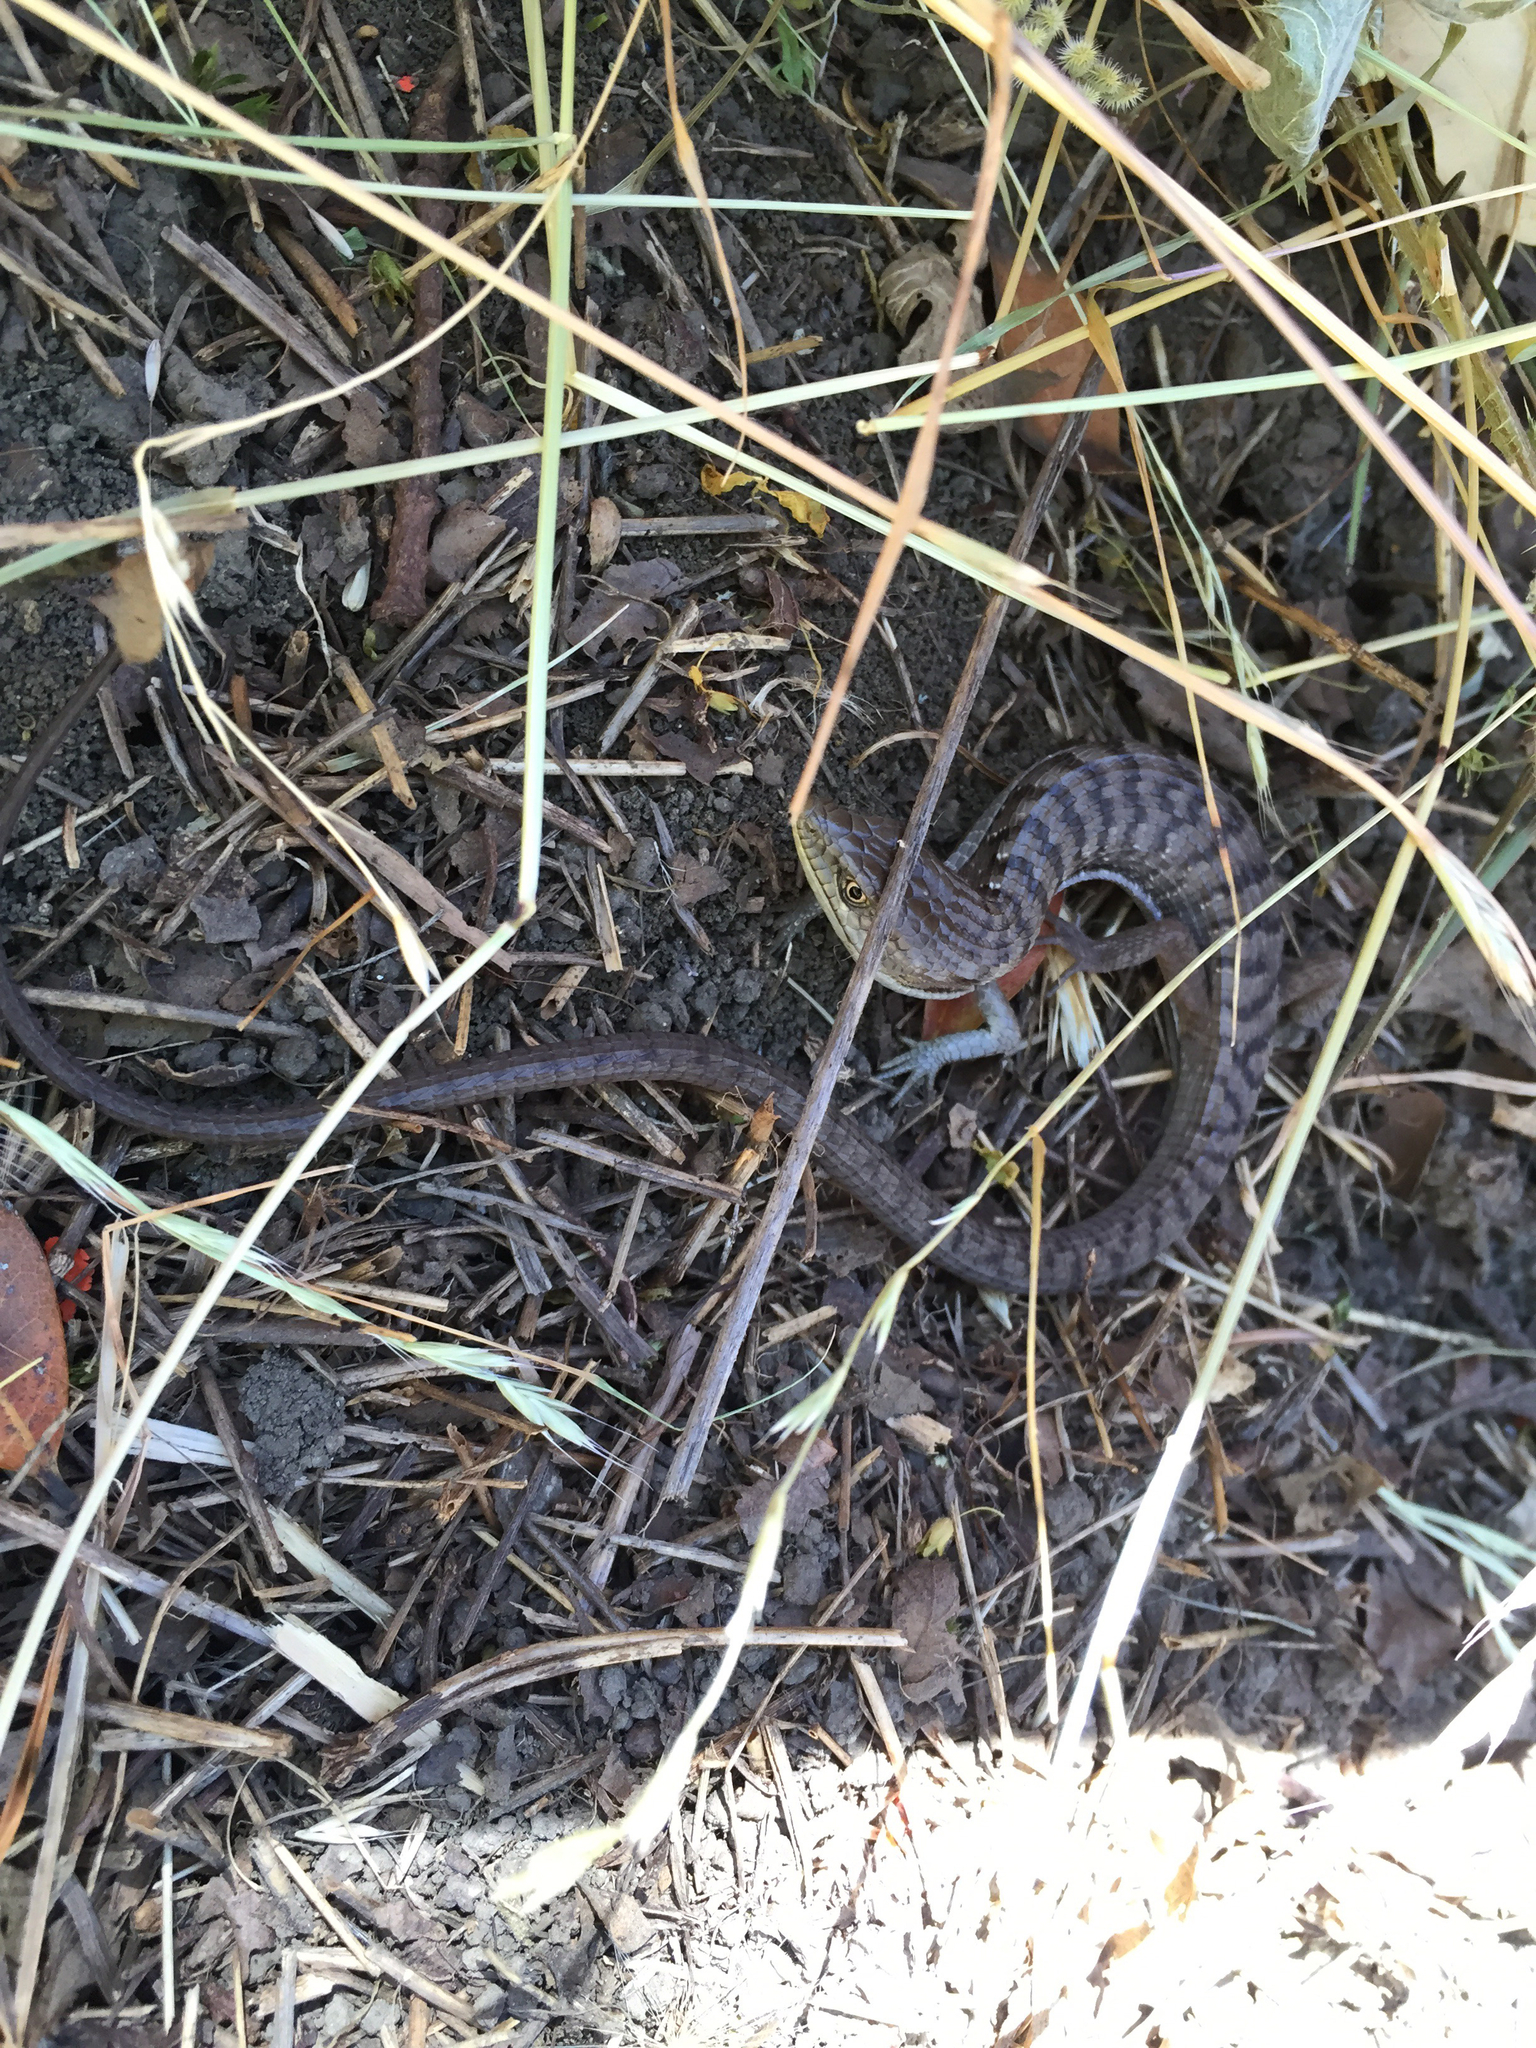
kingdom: Animalia
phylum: Chordata
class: Squamata
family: Anguidae
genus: Elgaria
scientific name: Elgaria multicarinata
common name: Southern alligator lizard
